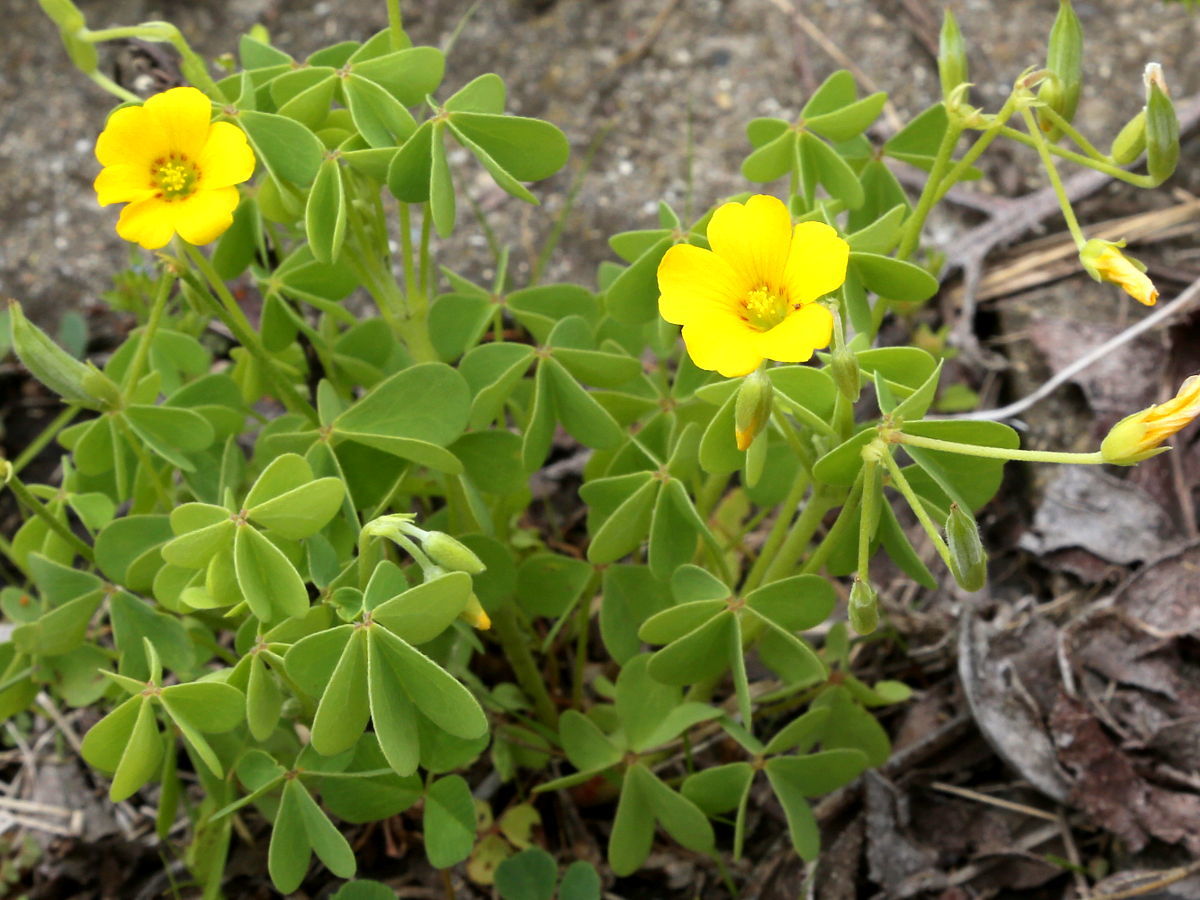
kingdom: Plantae
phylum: Tracheophyta
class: Magnoliopsida
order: Oxalidales
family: Oxalidaceae
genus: Oxalis
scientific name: Oxalis dillenii
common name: Sussex yellow-sorrel
